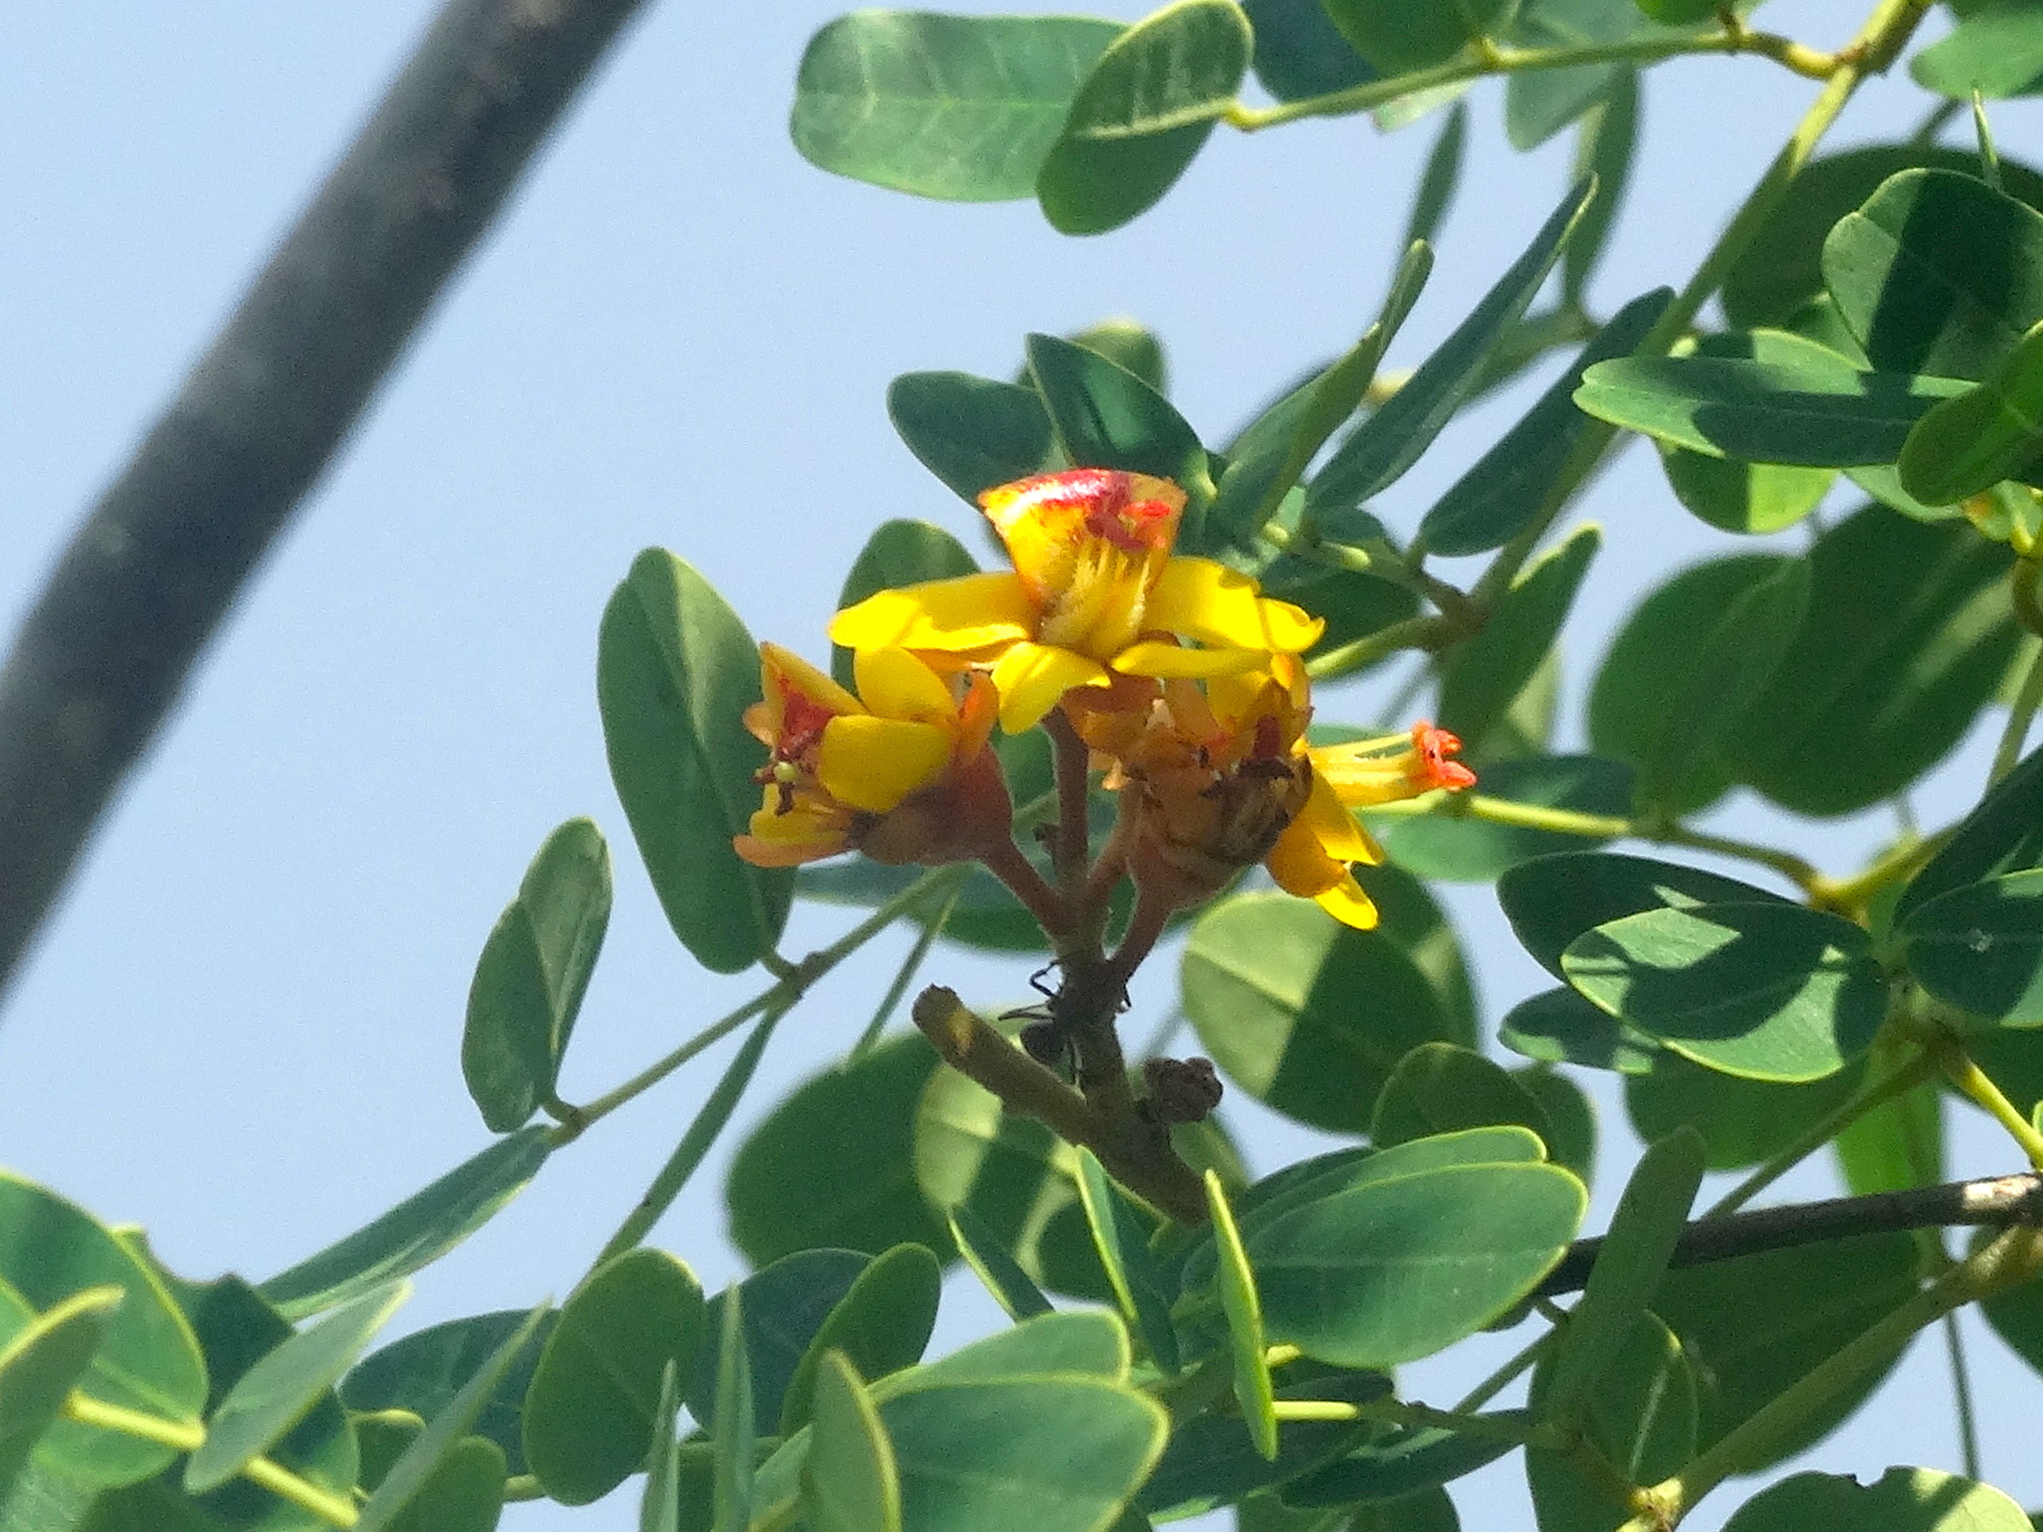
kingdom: Plantae
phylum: Tracheophyta
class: Magnoliopsida
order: Fabales
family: Fabaceae
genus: Libidibia
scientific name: Libidibia sclerocarpa
